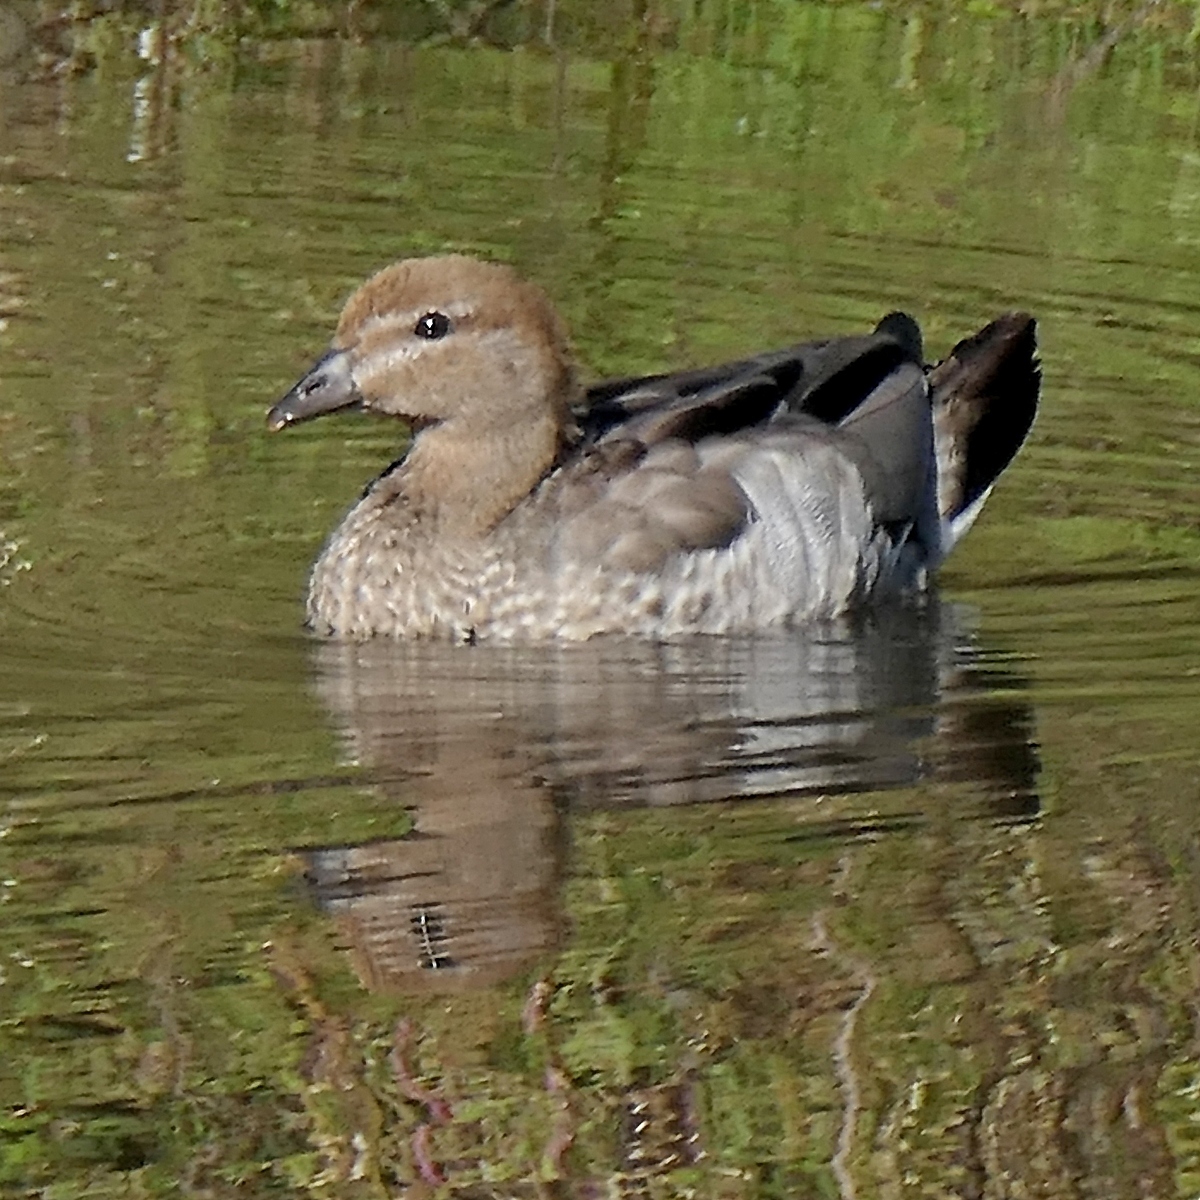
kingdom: Animalia
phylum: Chordata
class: Aves
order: Anseriformes
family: Anatidae
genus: Chenonetta
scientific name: Chenonetta jubata
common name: Maned duck
